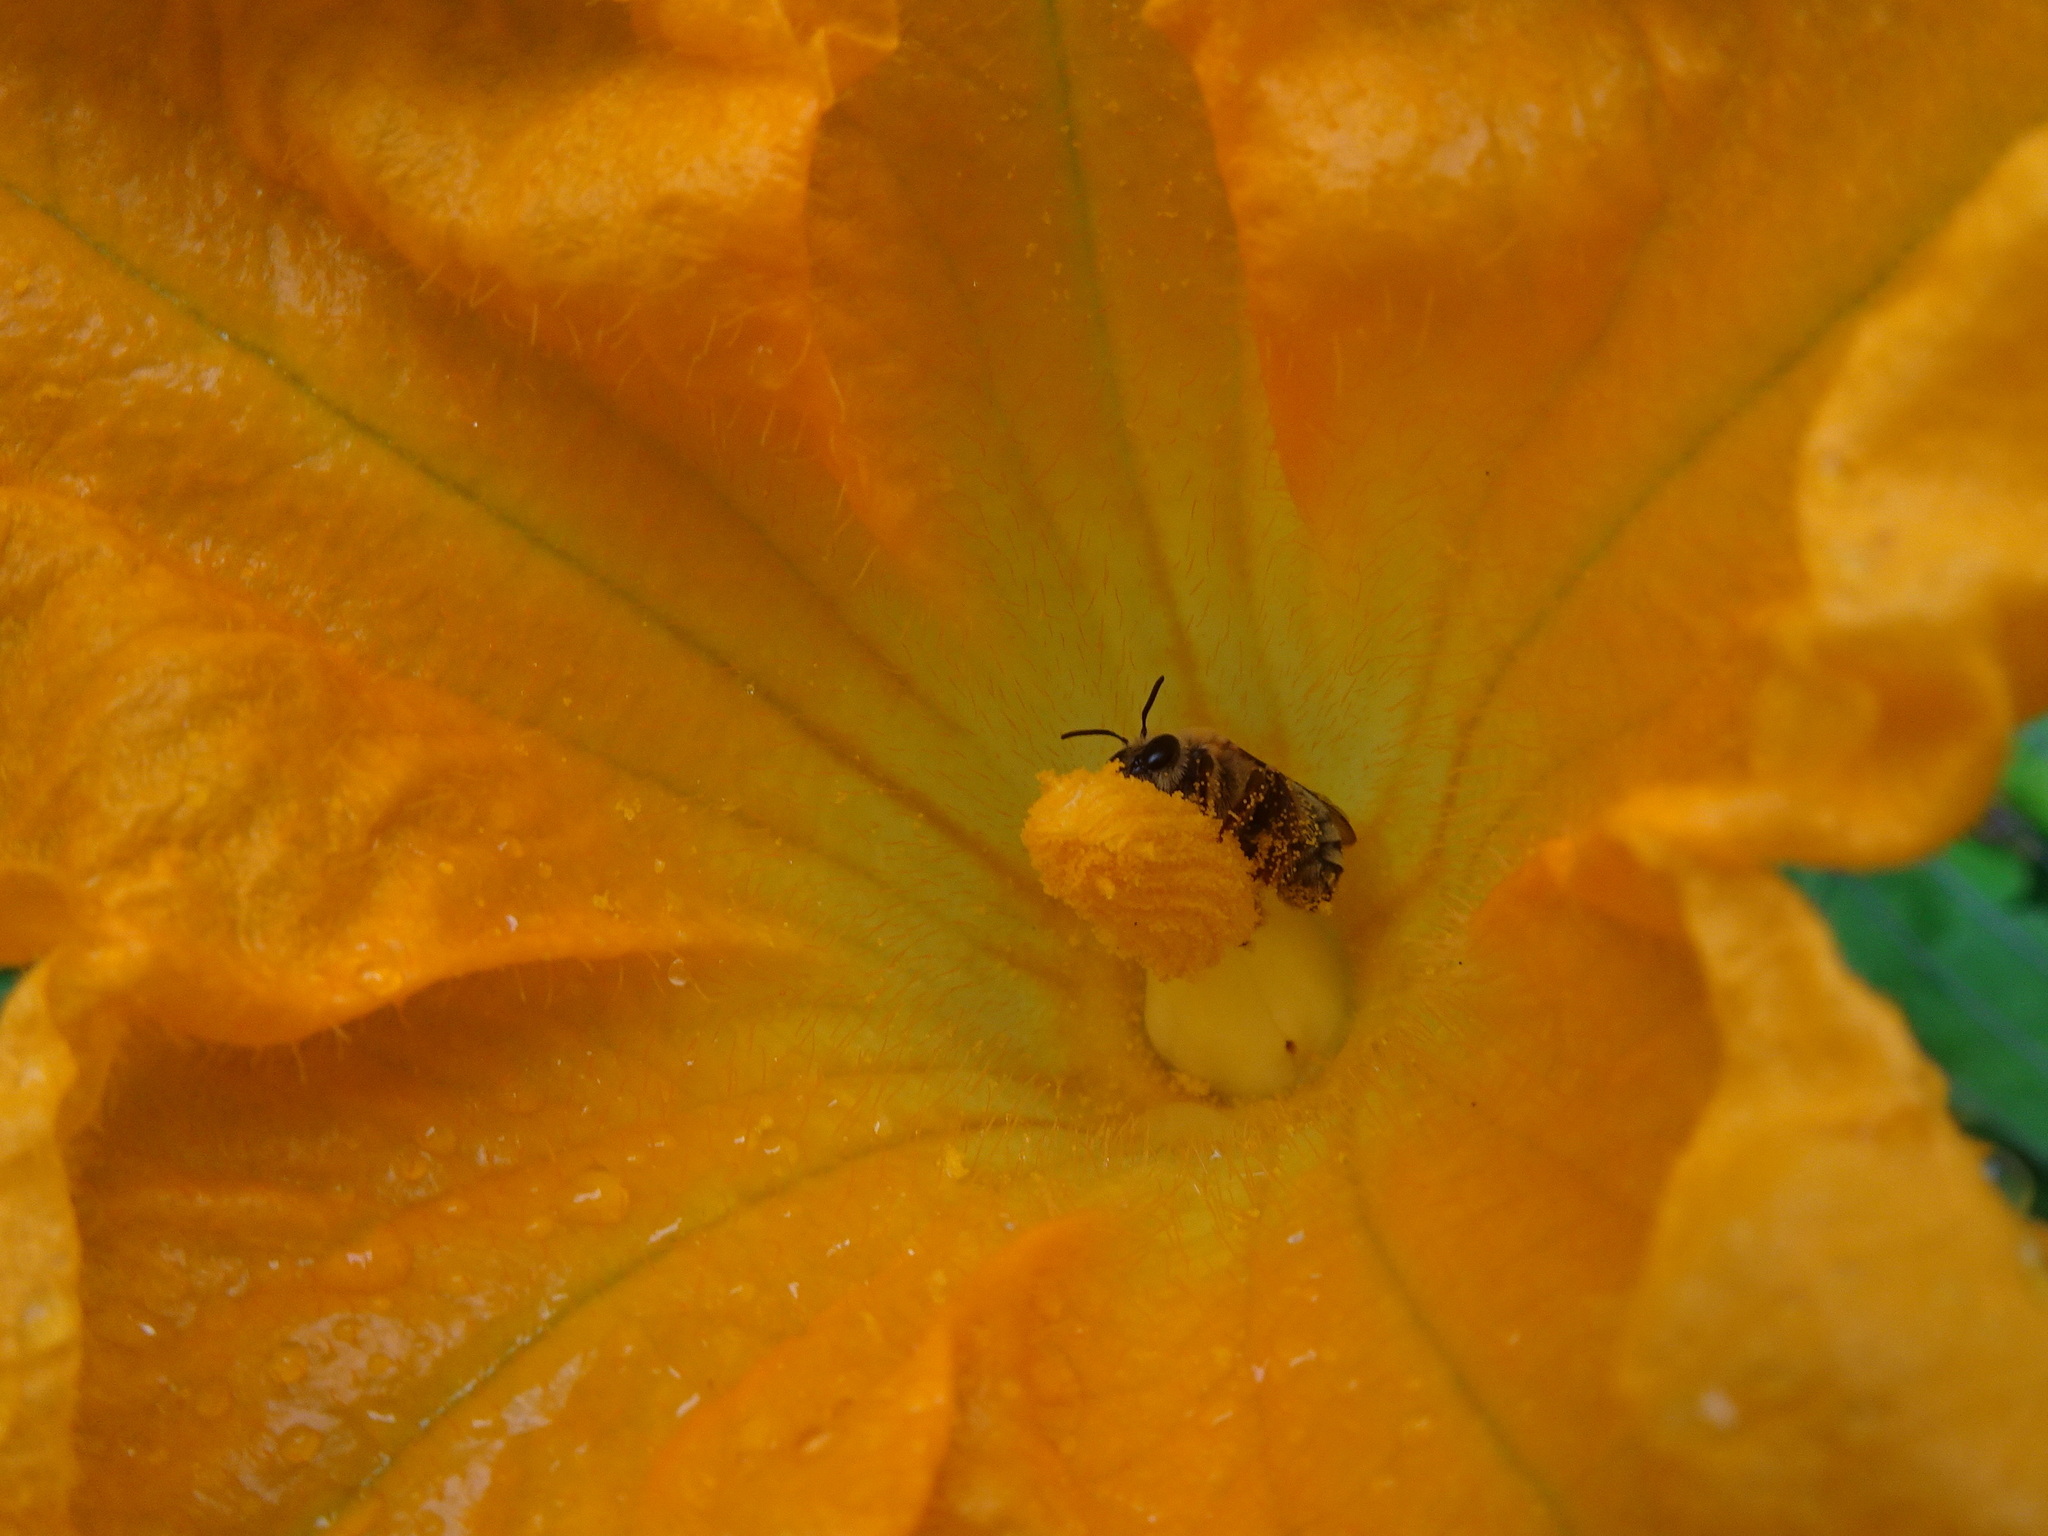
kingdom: Animalia
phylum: Arthropoda
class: Insecta
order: Hymenoptera
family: Apidae
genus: Peponapis
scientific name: Peponapis pruinosa
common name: Pruinose squash bee
